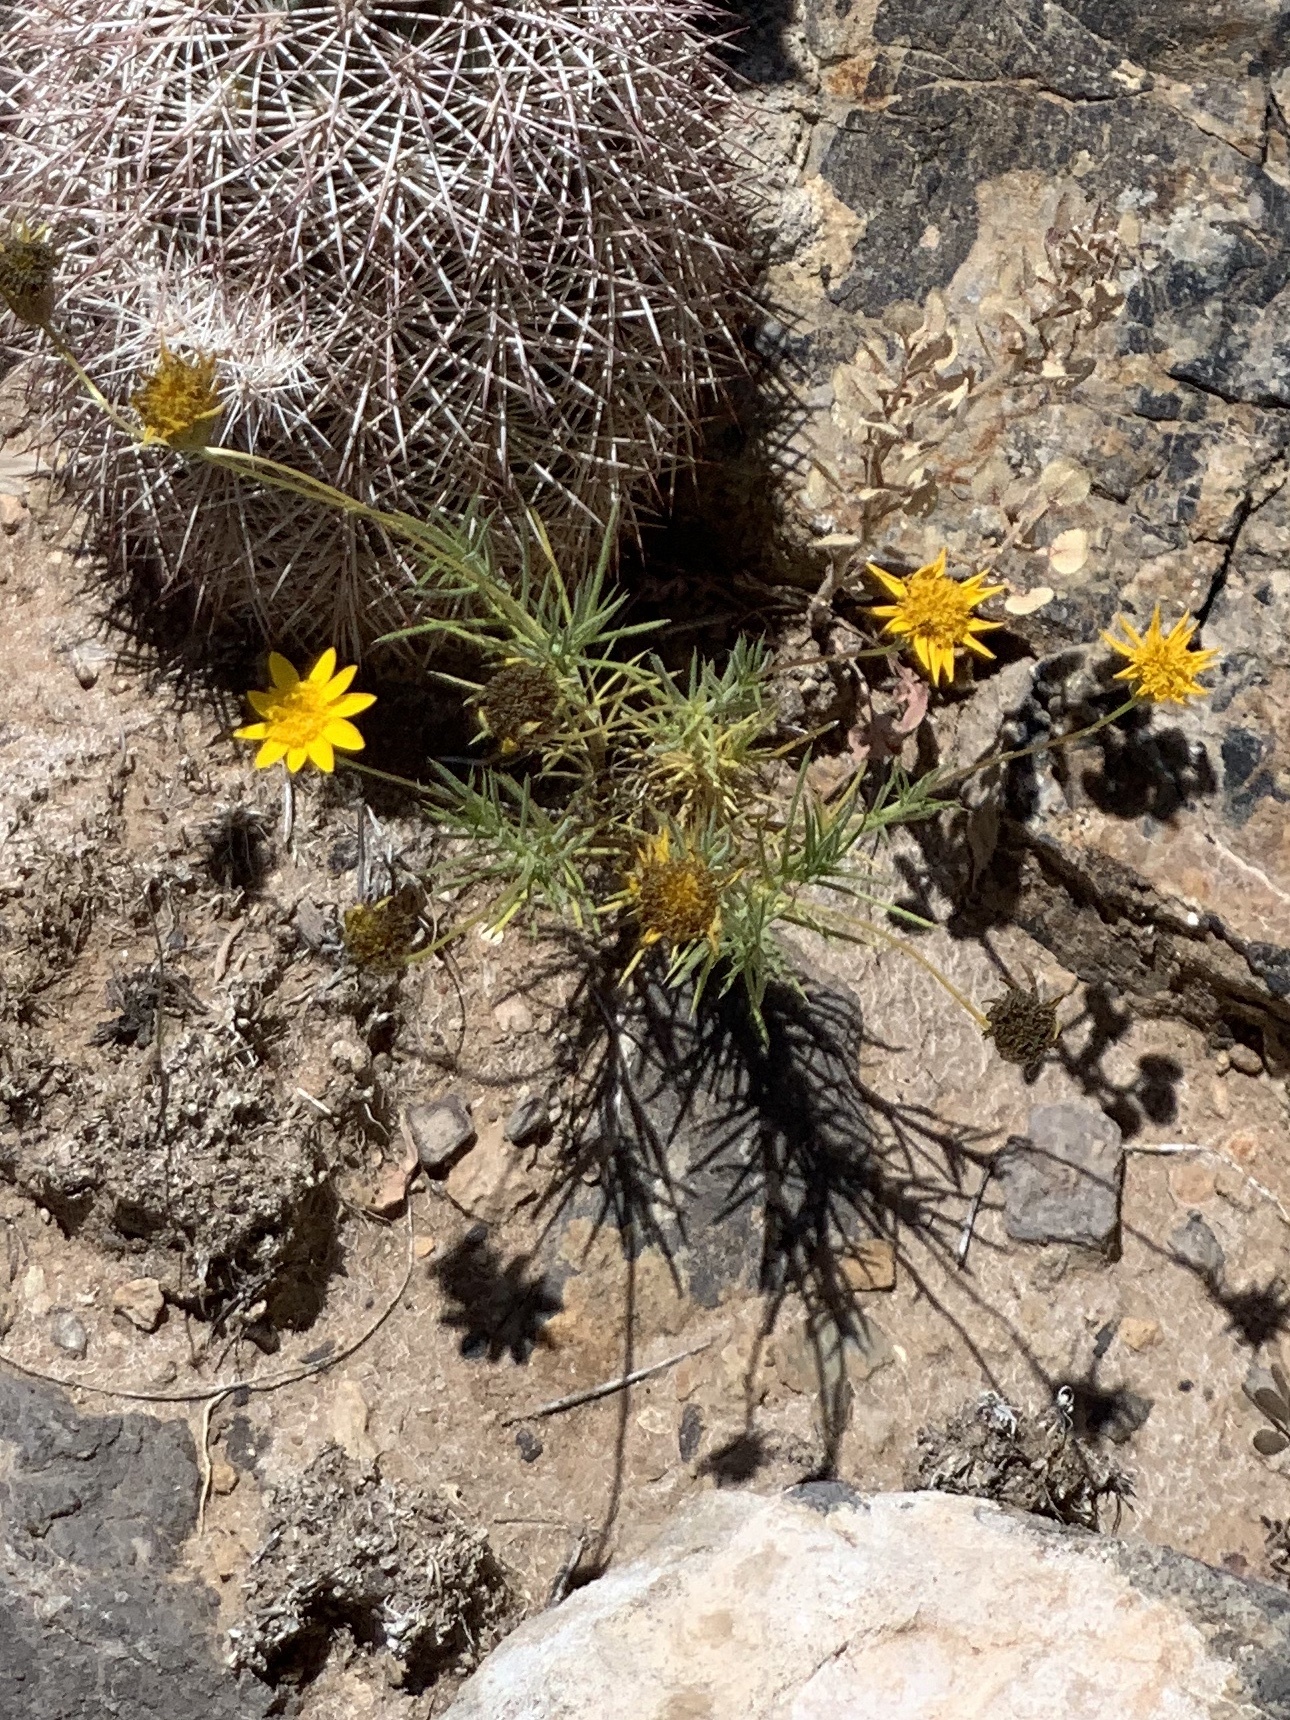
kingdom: Plantae
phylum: Tracheophyta
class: Magnoliopsida
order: Asterales
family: Asteraceae
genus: Thymophylla
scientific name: Thymophylla pentachaeta
